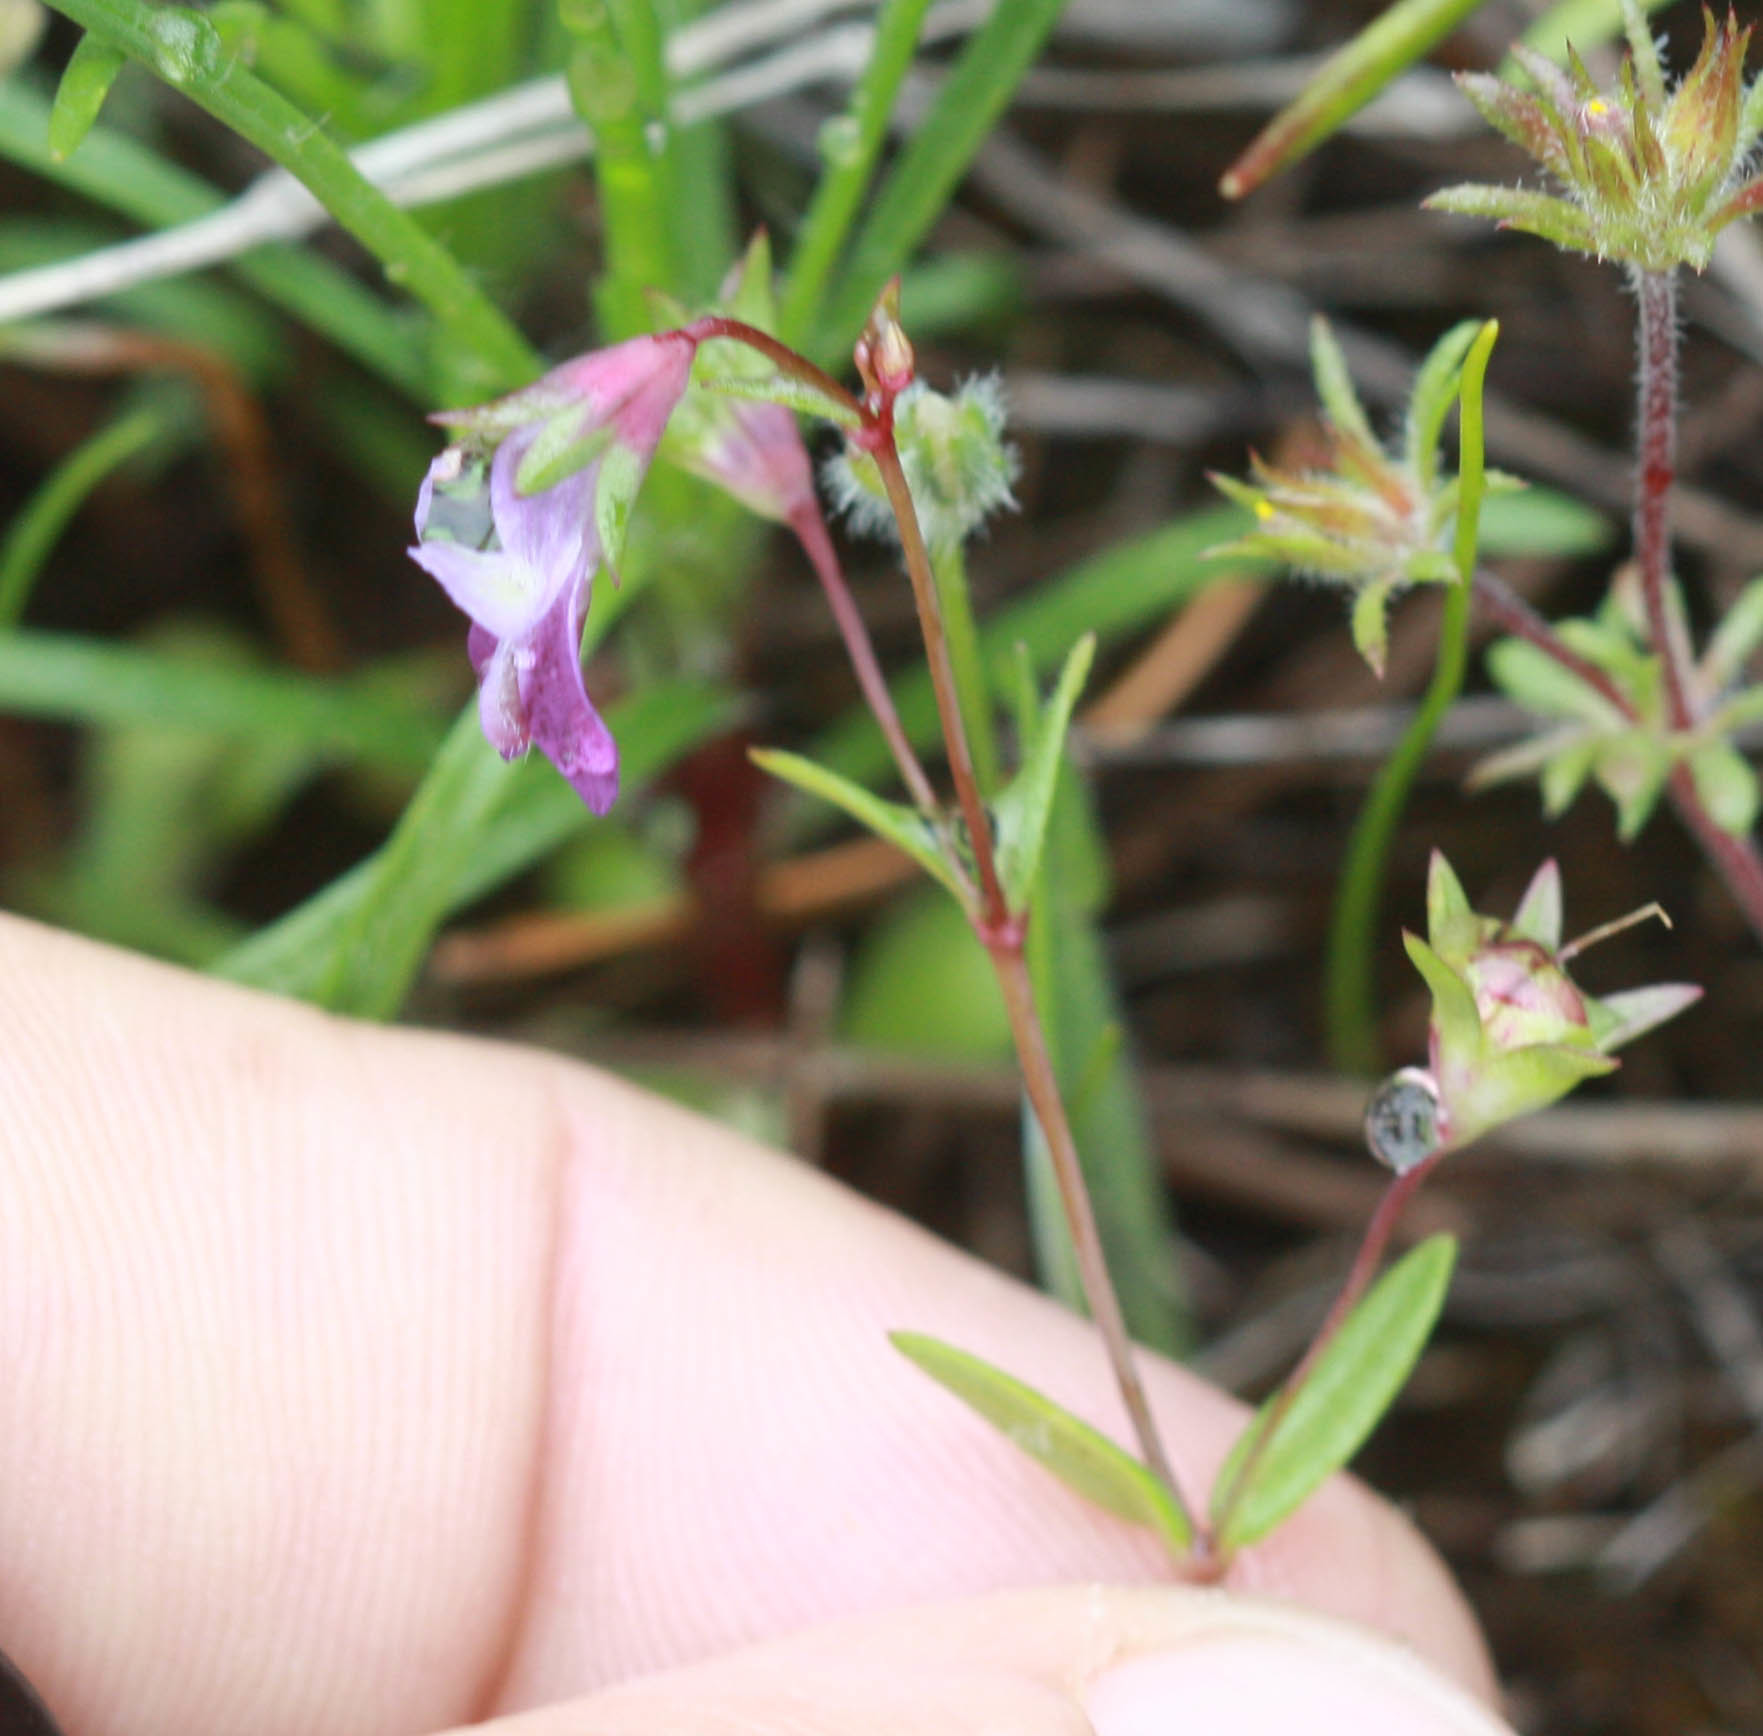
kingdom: Plantae
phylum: Tracheophyta
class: Magnoliopsida
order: Lamiales
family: Plantaginaceae
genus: Collinsia
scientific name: Collinsia sparsiflora
